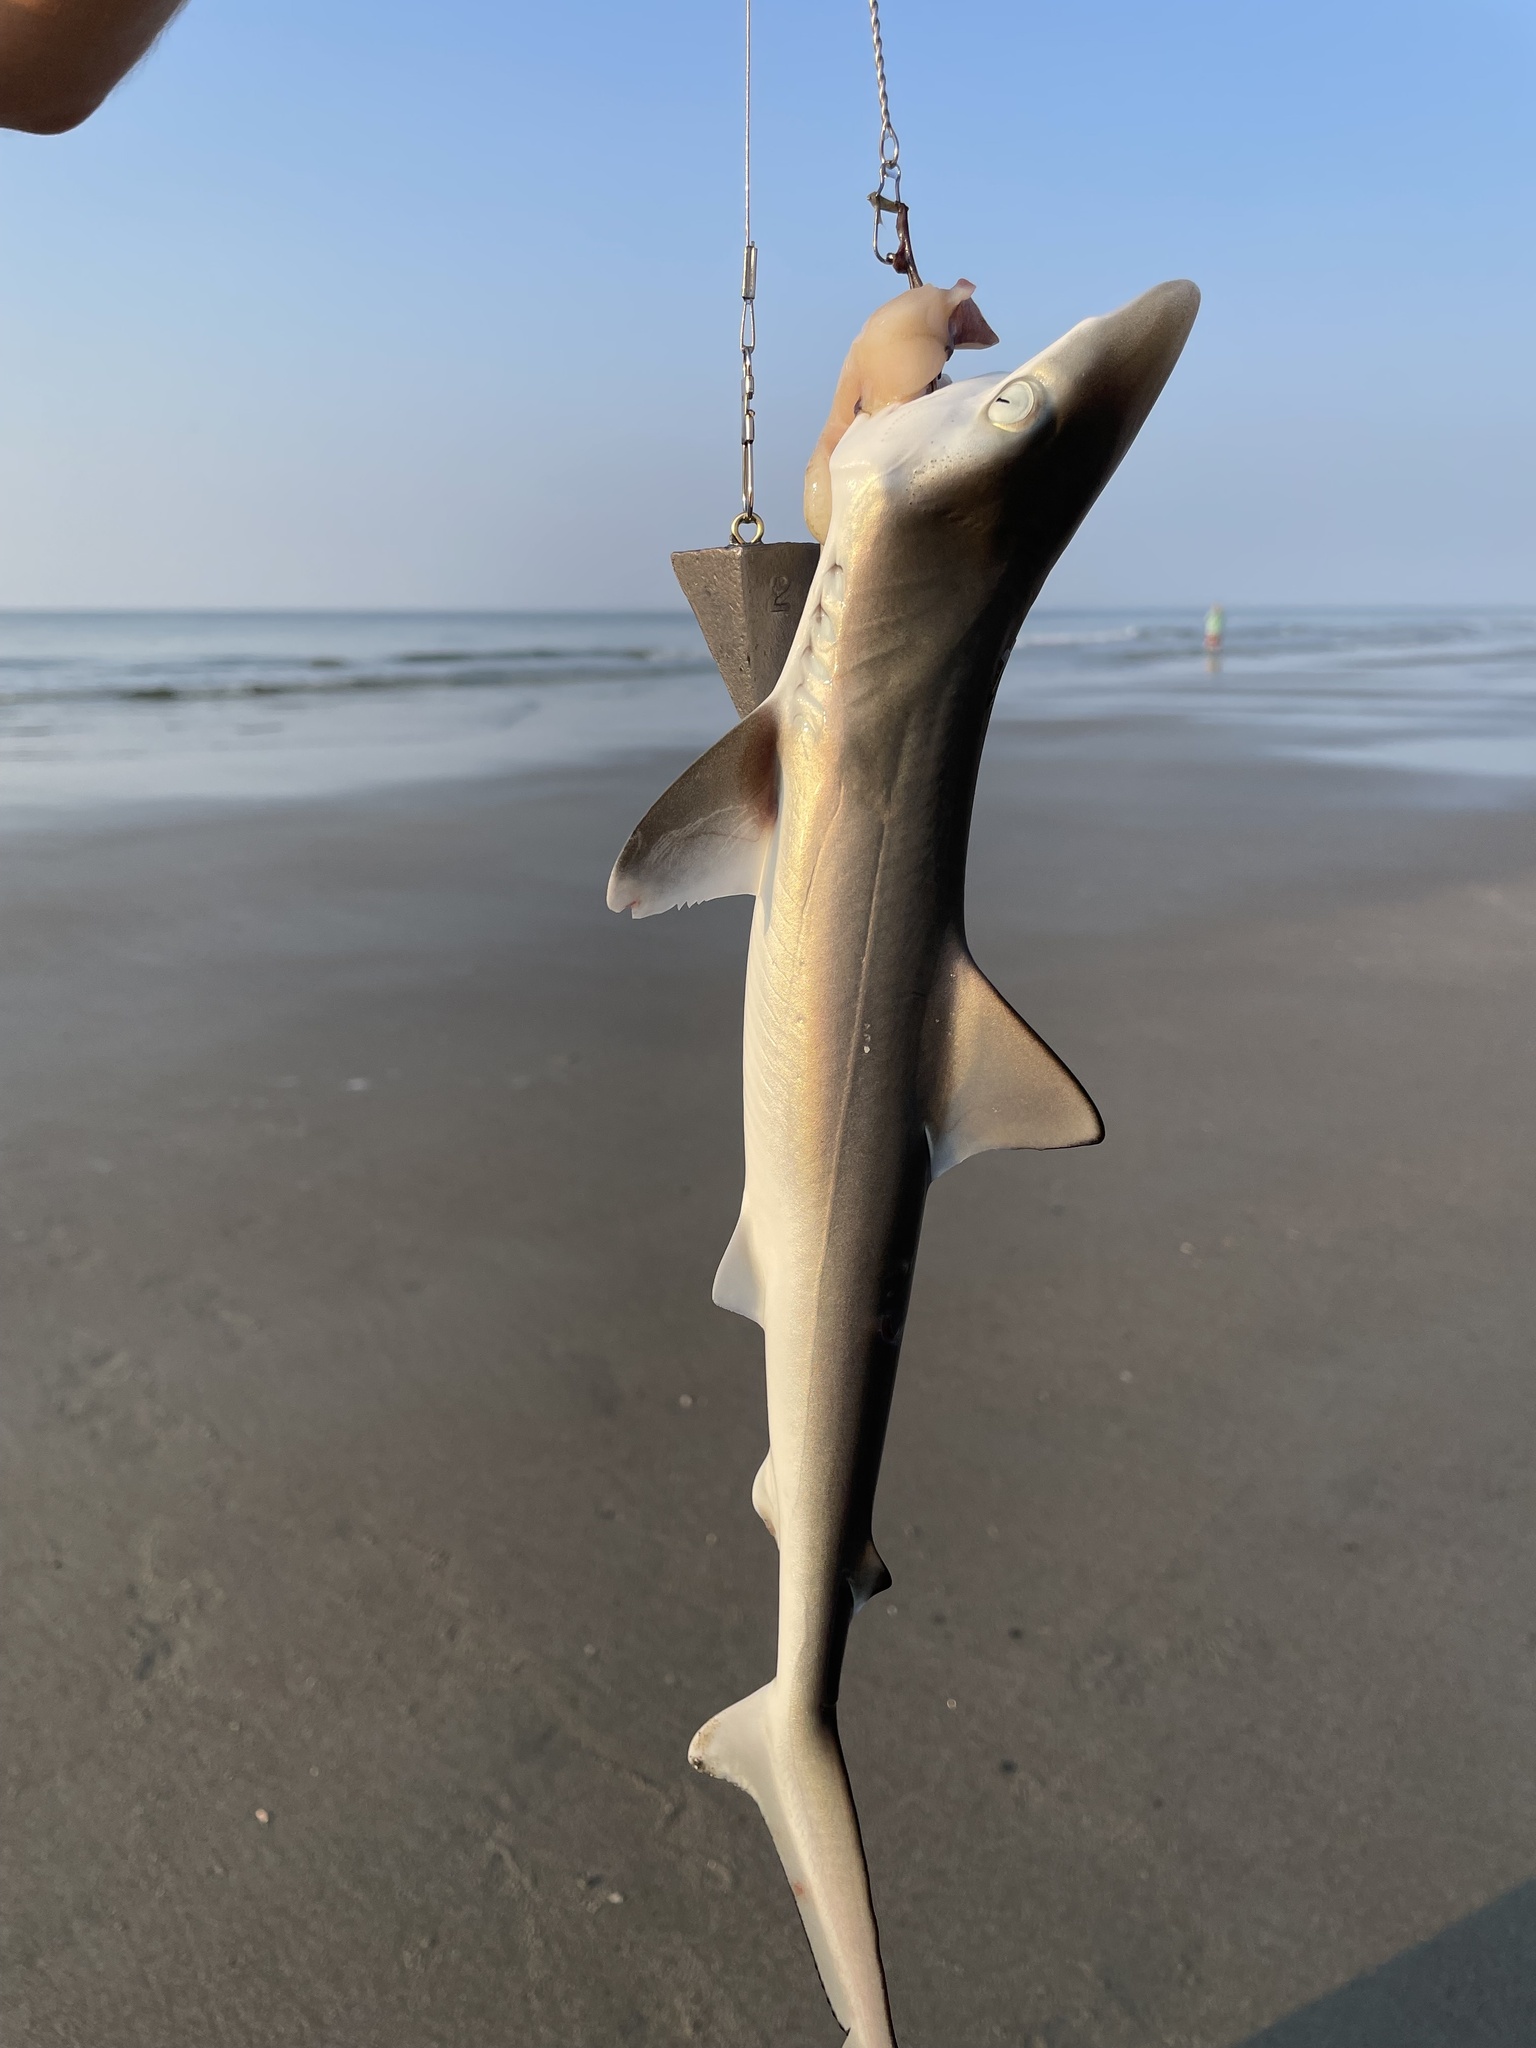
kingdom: Animalia
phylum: Chordata
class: Elasmobranchii
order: Carcharhiniformes
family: Carcharhinidae
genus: Rhizoprionodon
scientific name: Rhizoprionodon terraenovae
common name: Atlantic sharpnose shark
